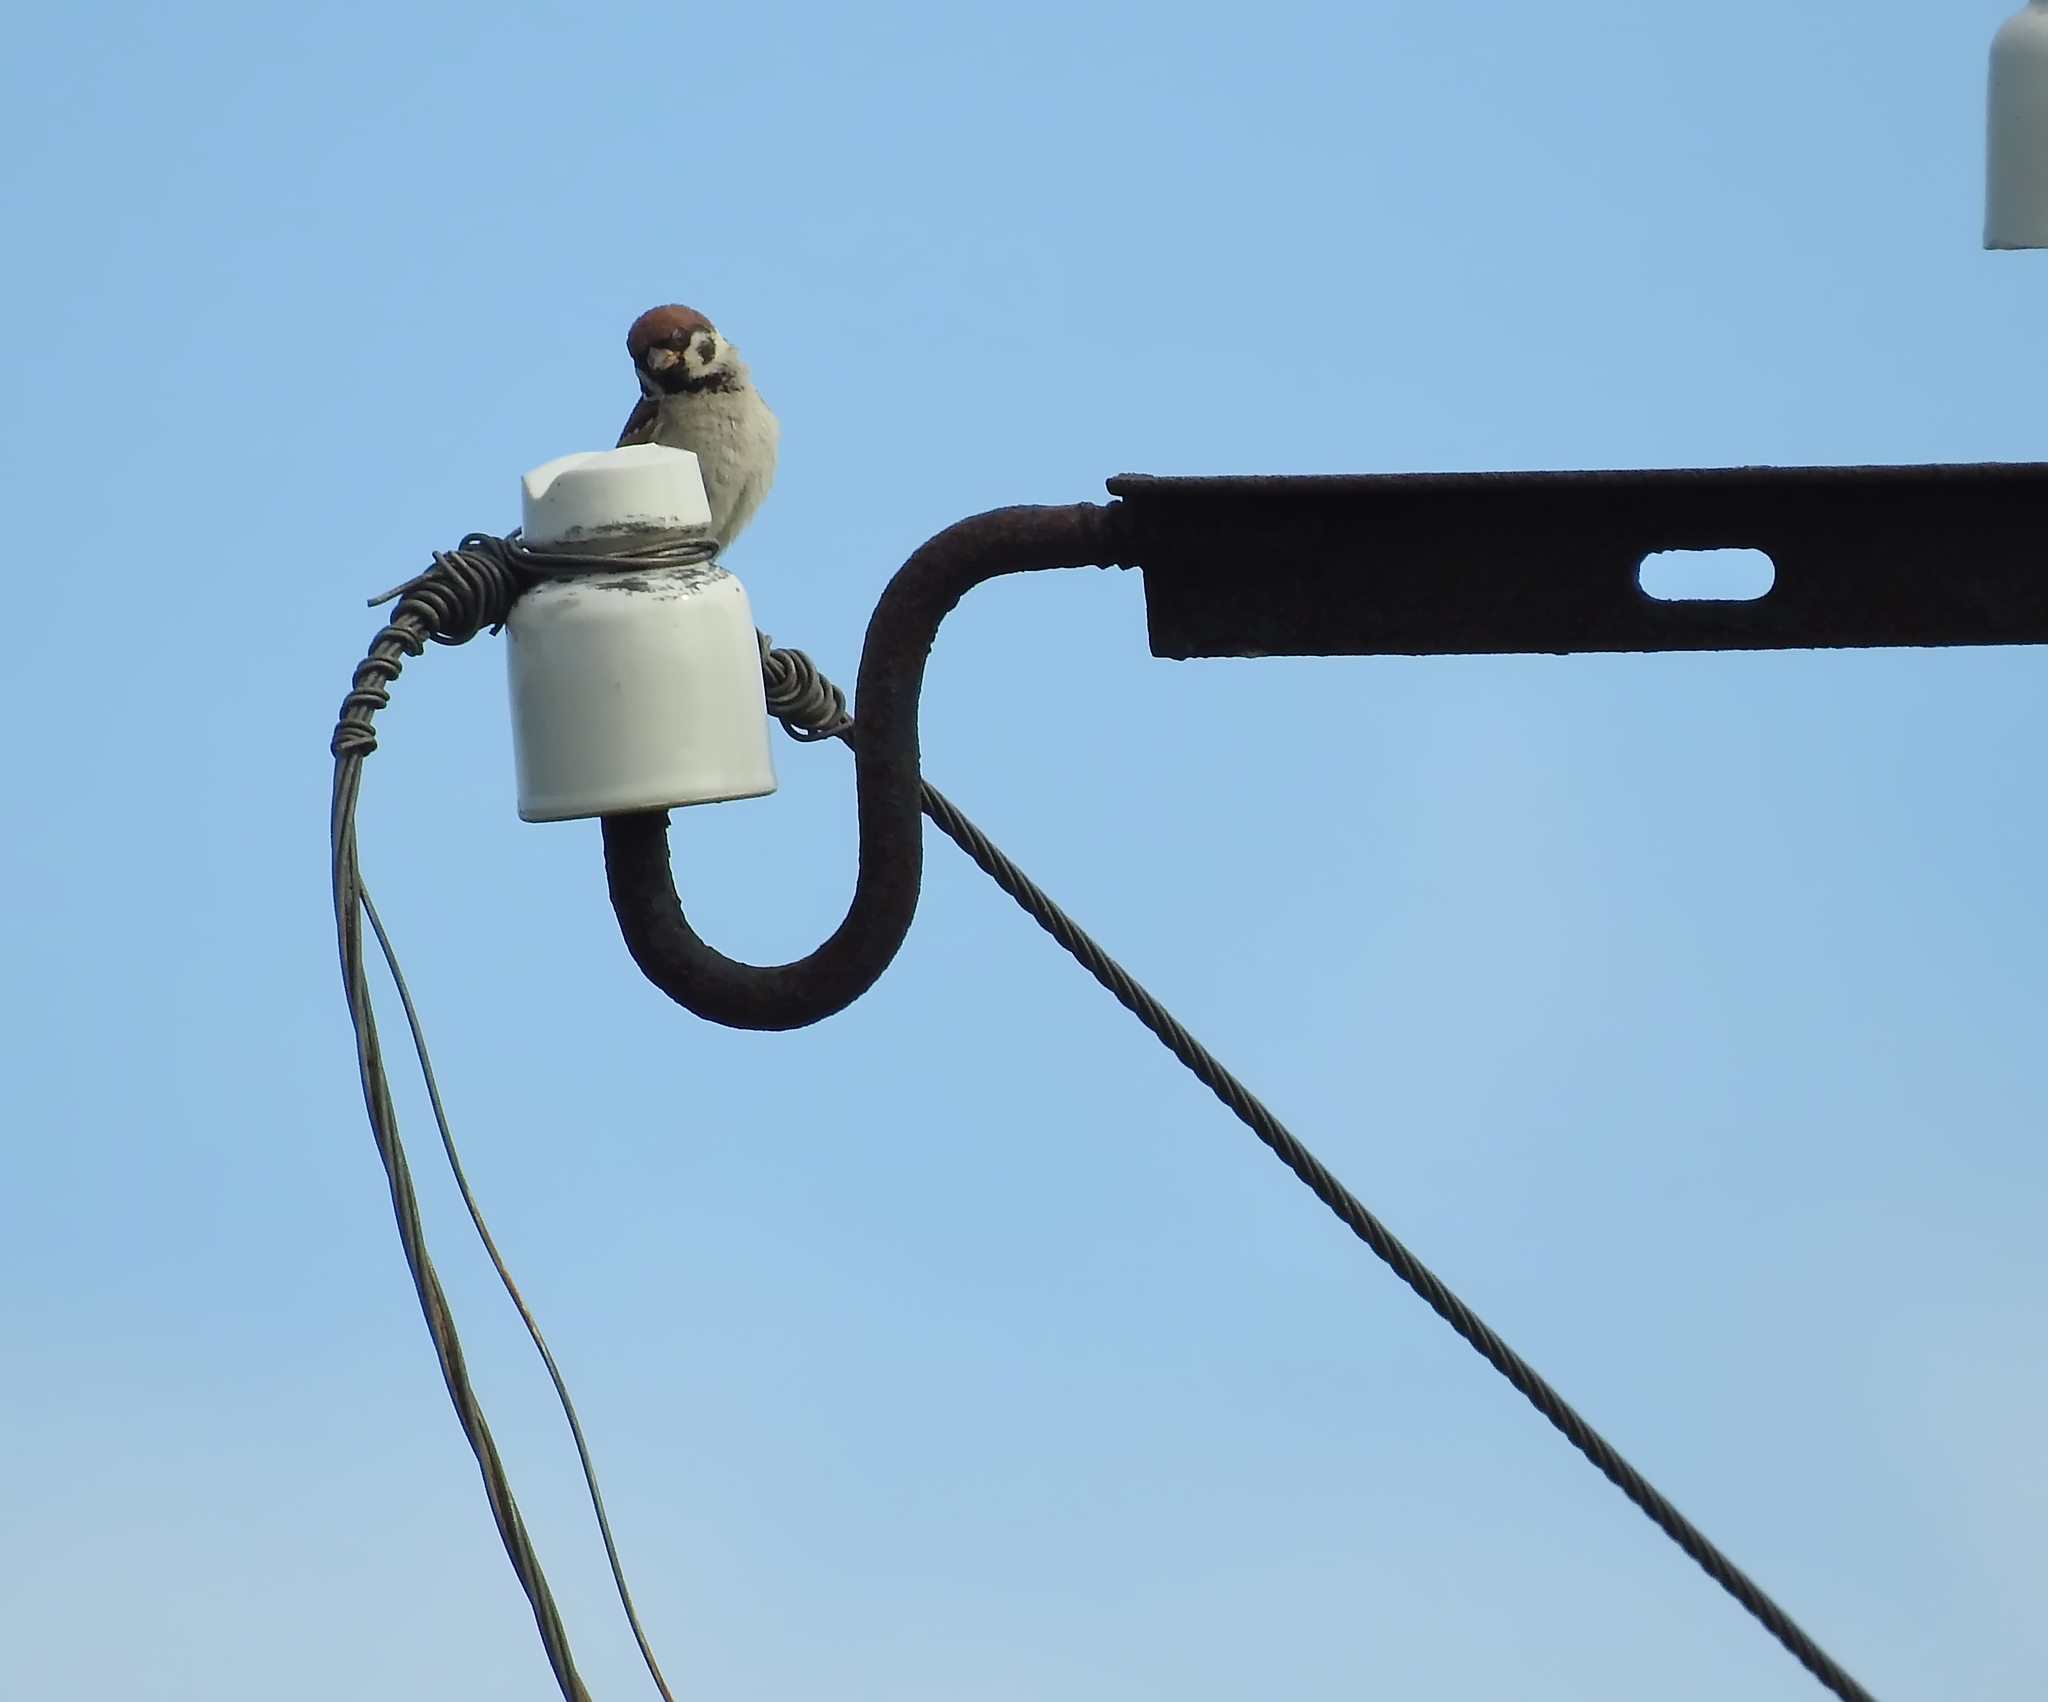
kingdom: Animalia
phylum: Chordata
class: Aves
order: Passeriformes
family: Passeridae
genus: Passer
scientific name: Passer montanus
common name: Eurasian tree sparrow
